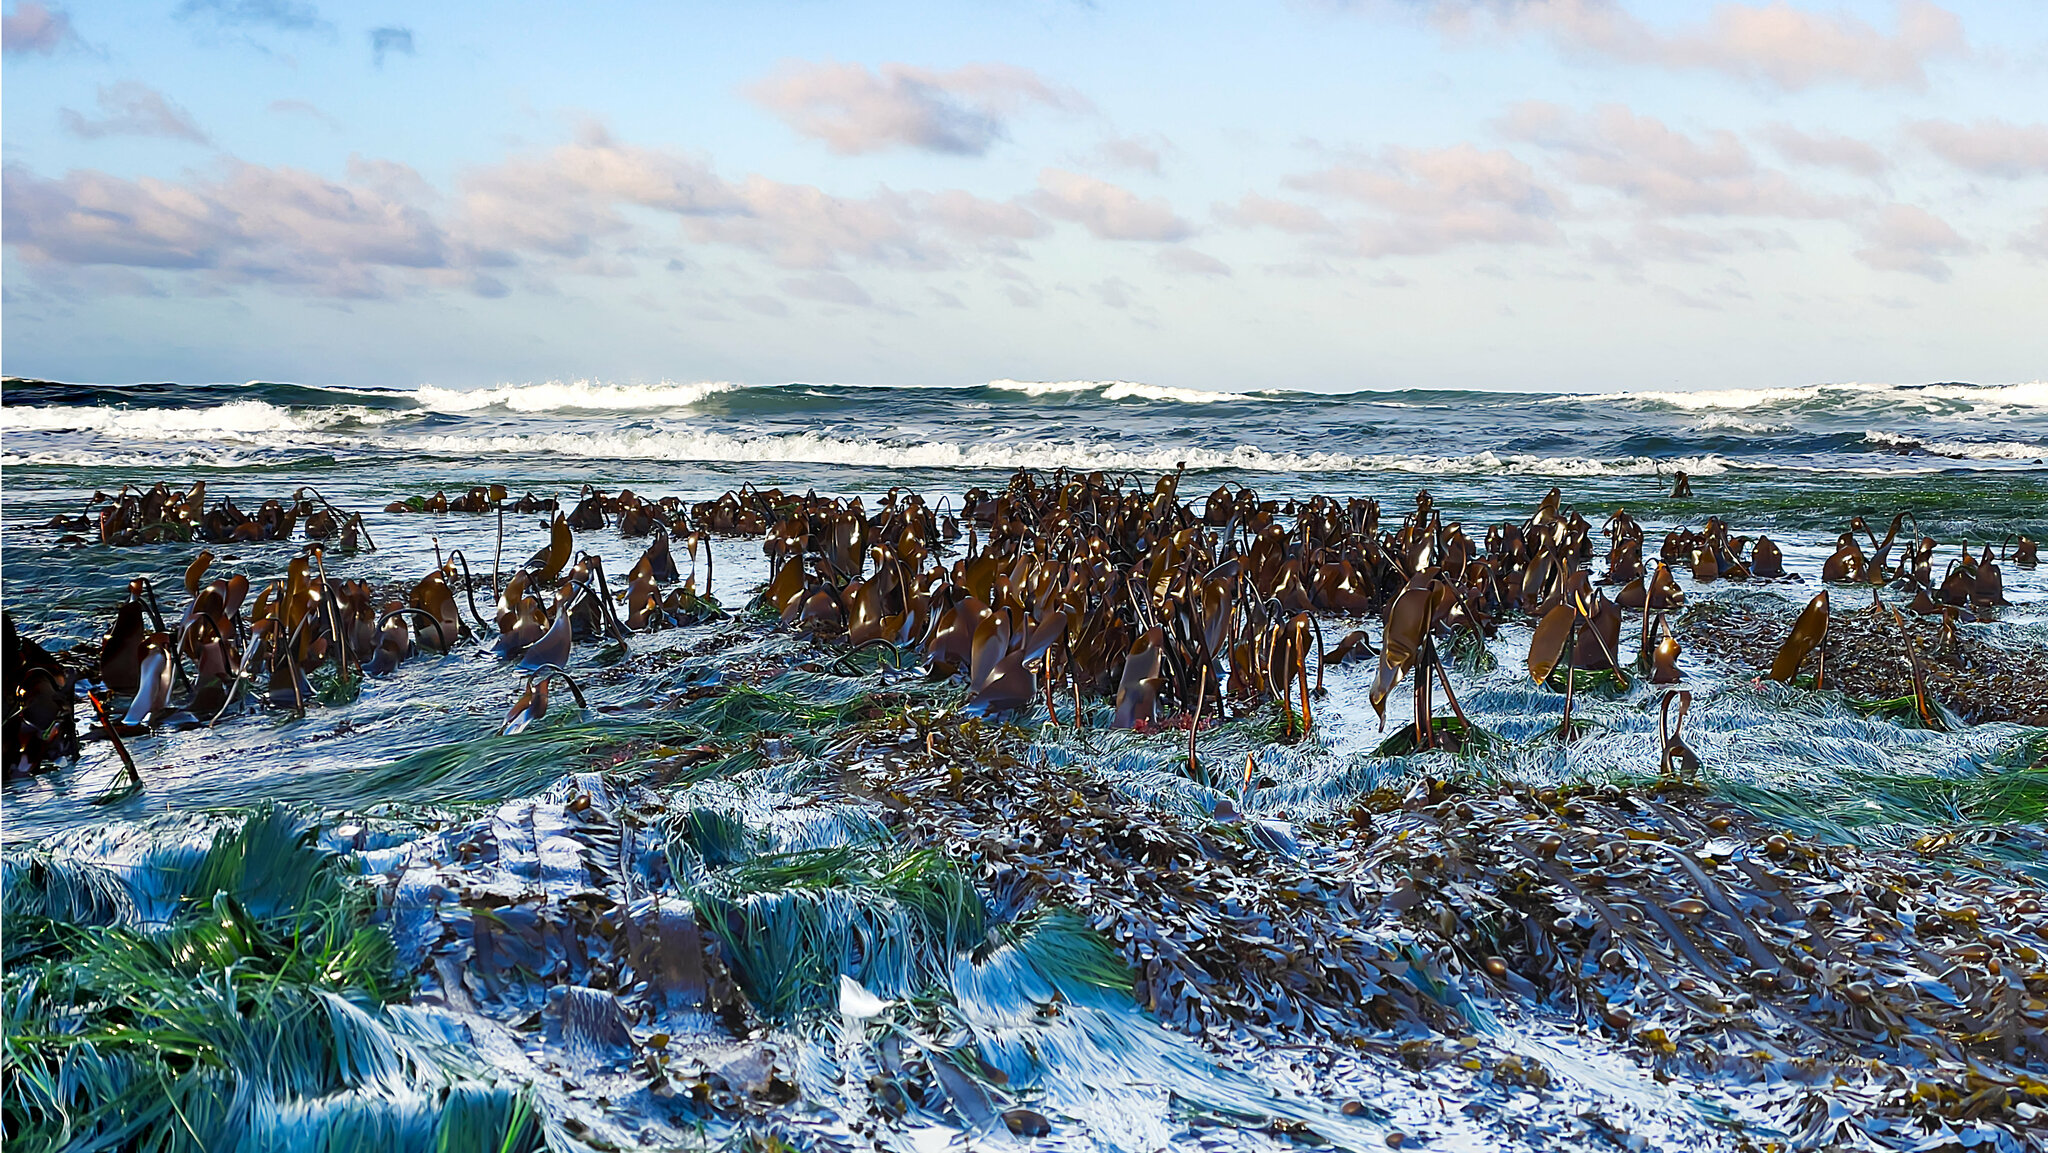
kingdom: Chromista
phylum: Ochrophyta
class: Phaeophyceae
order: Laminariales
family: Laminariaceae
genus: Laminaria
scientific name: Laminaria setchellii
